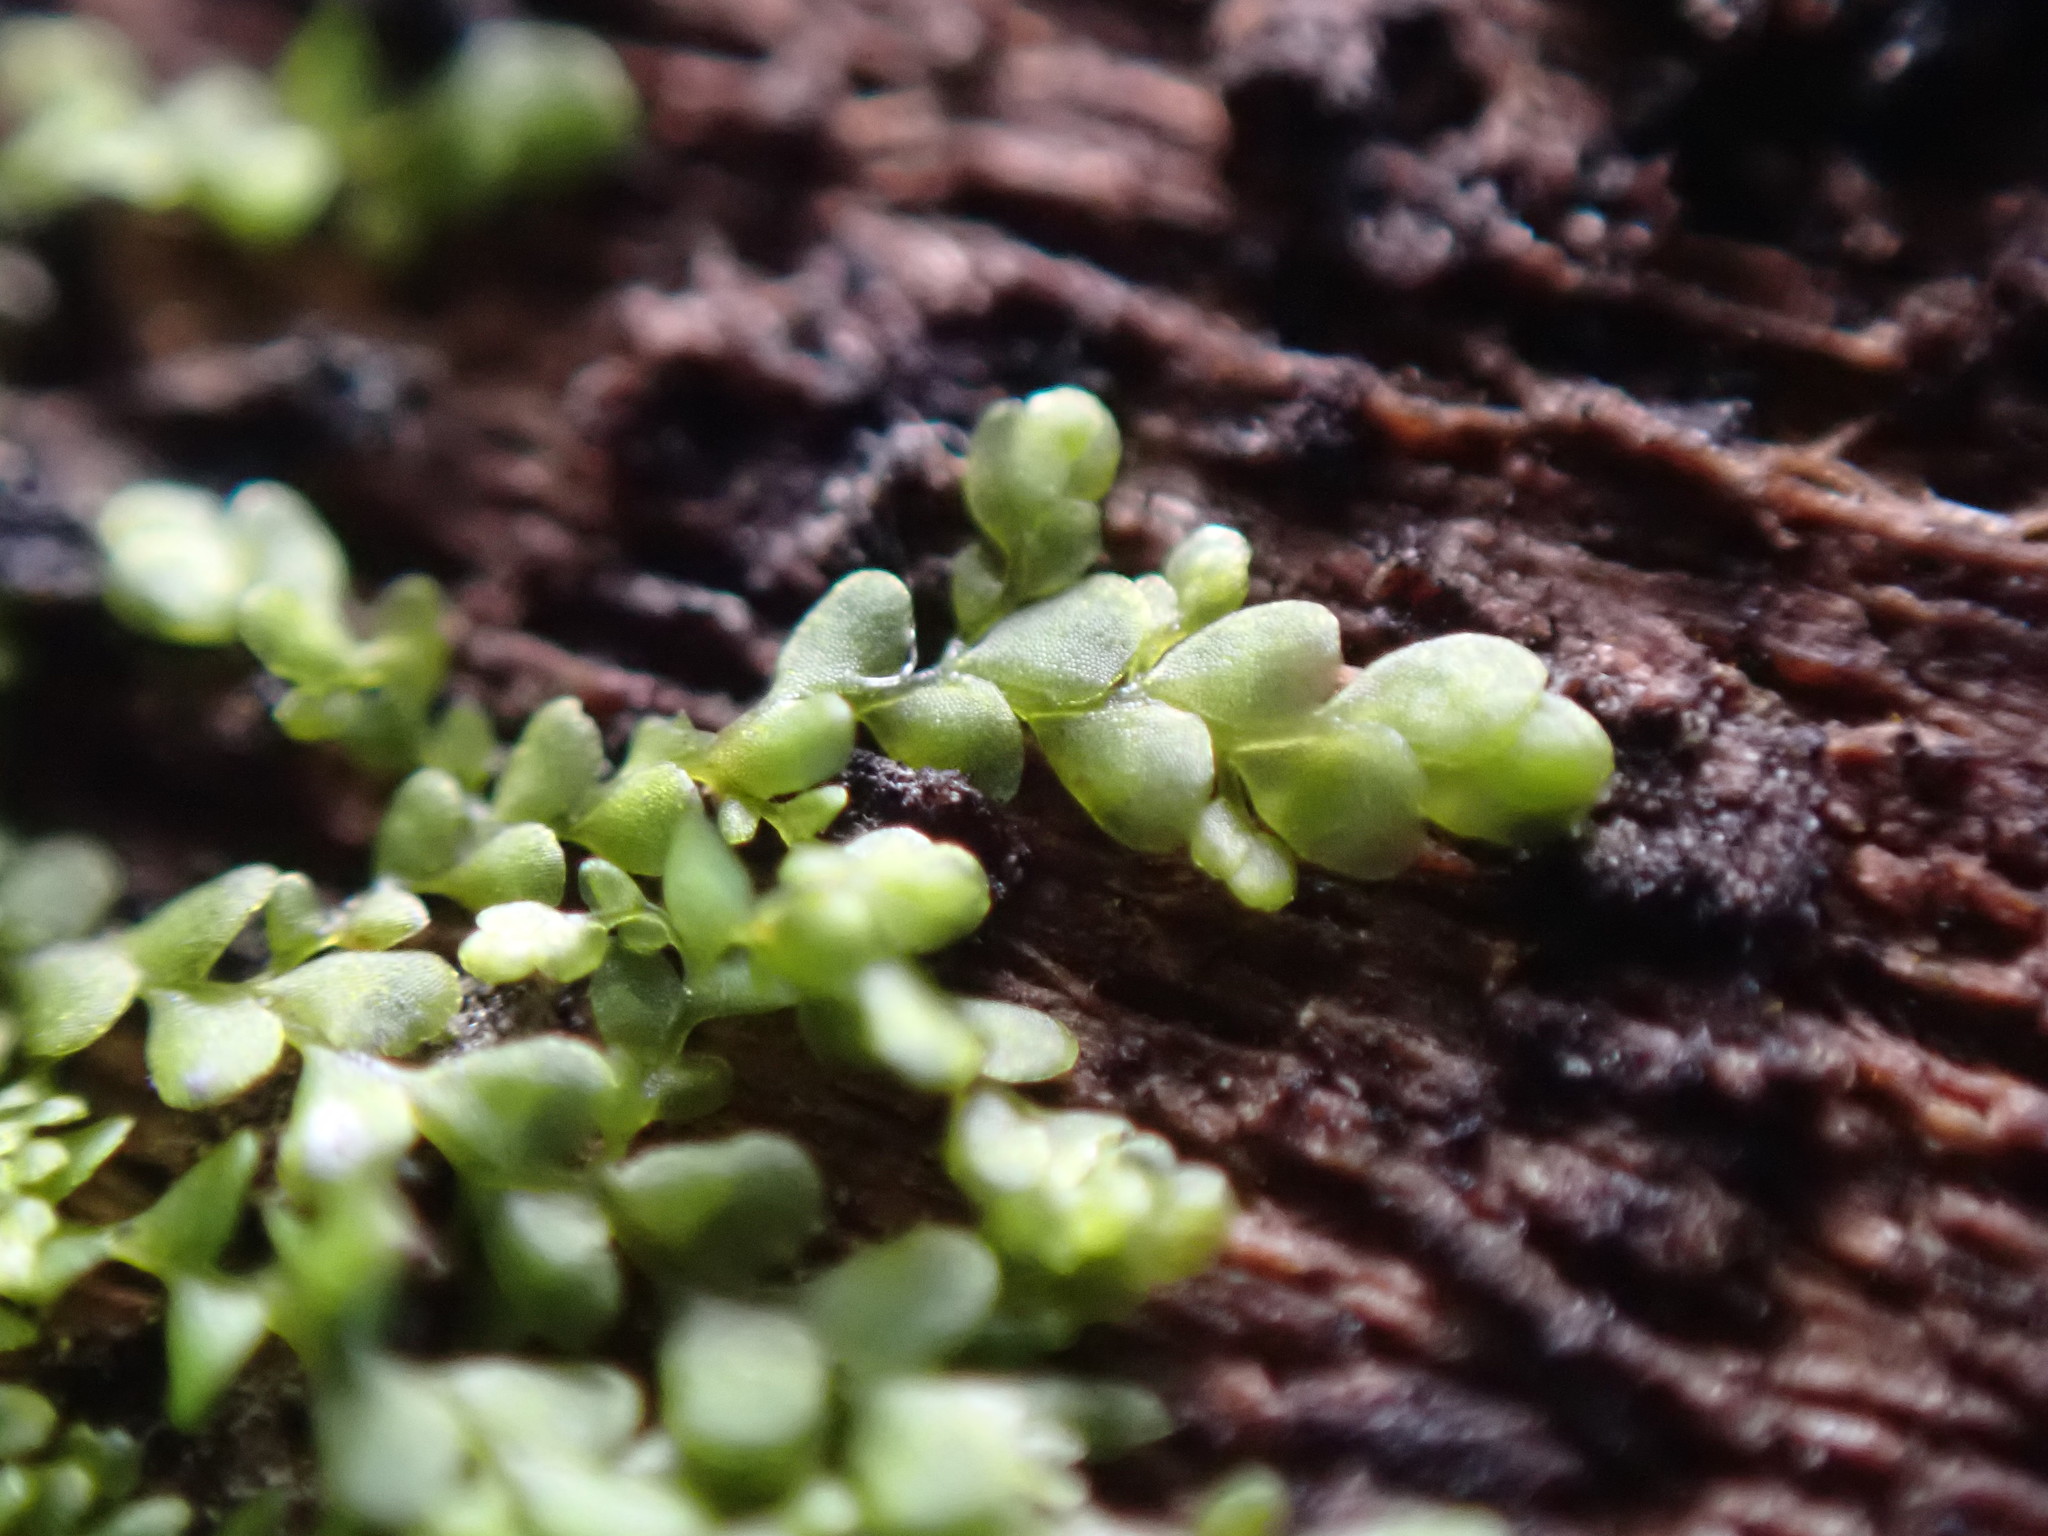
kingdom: Plantae
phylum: Marchantiophyta
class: Jungermanniopsida
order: Porellales
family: Radulaceae
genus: Radula
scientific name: Radula bolanderi
